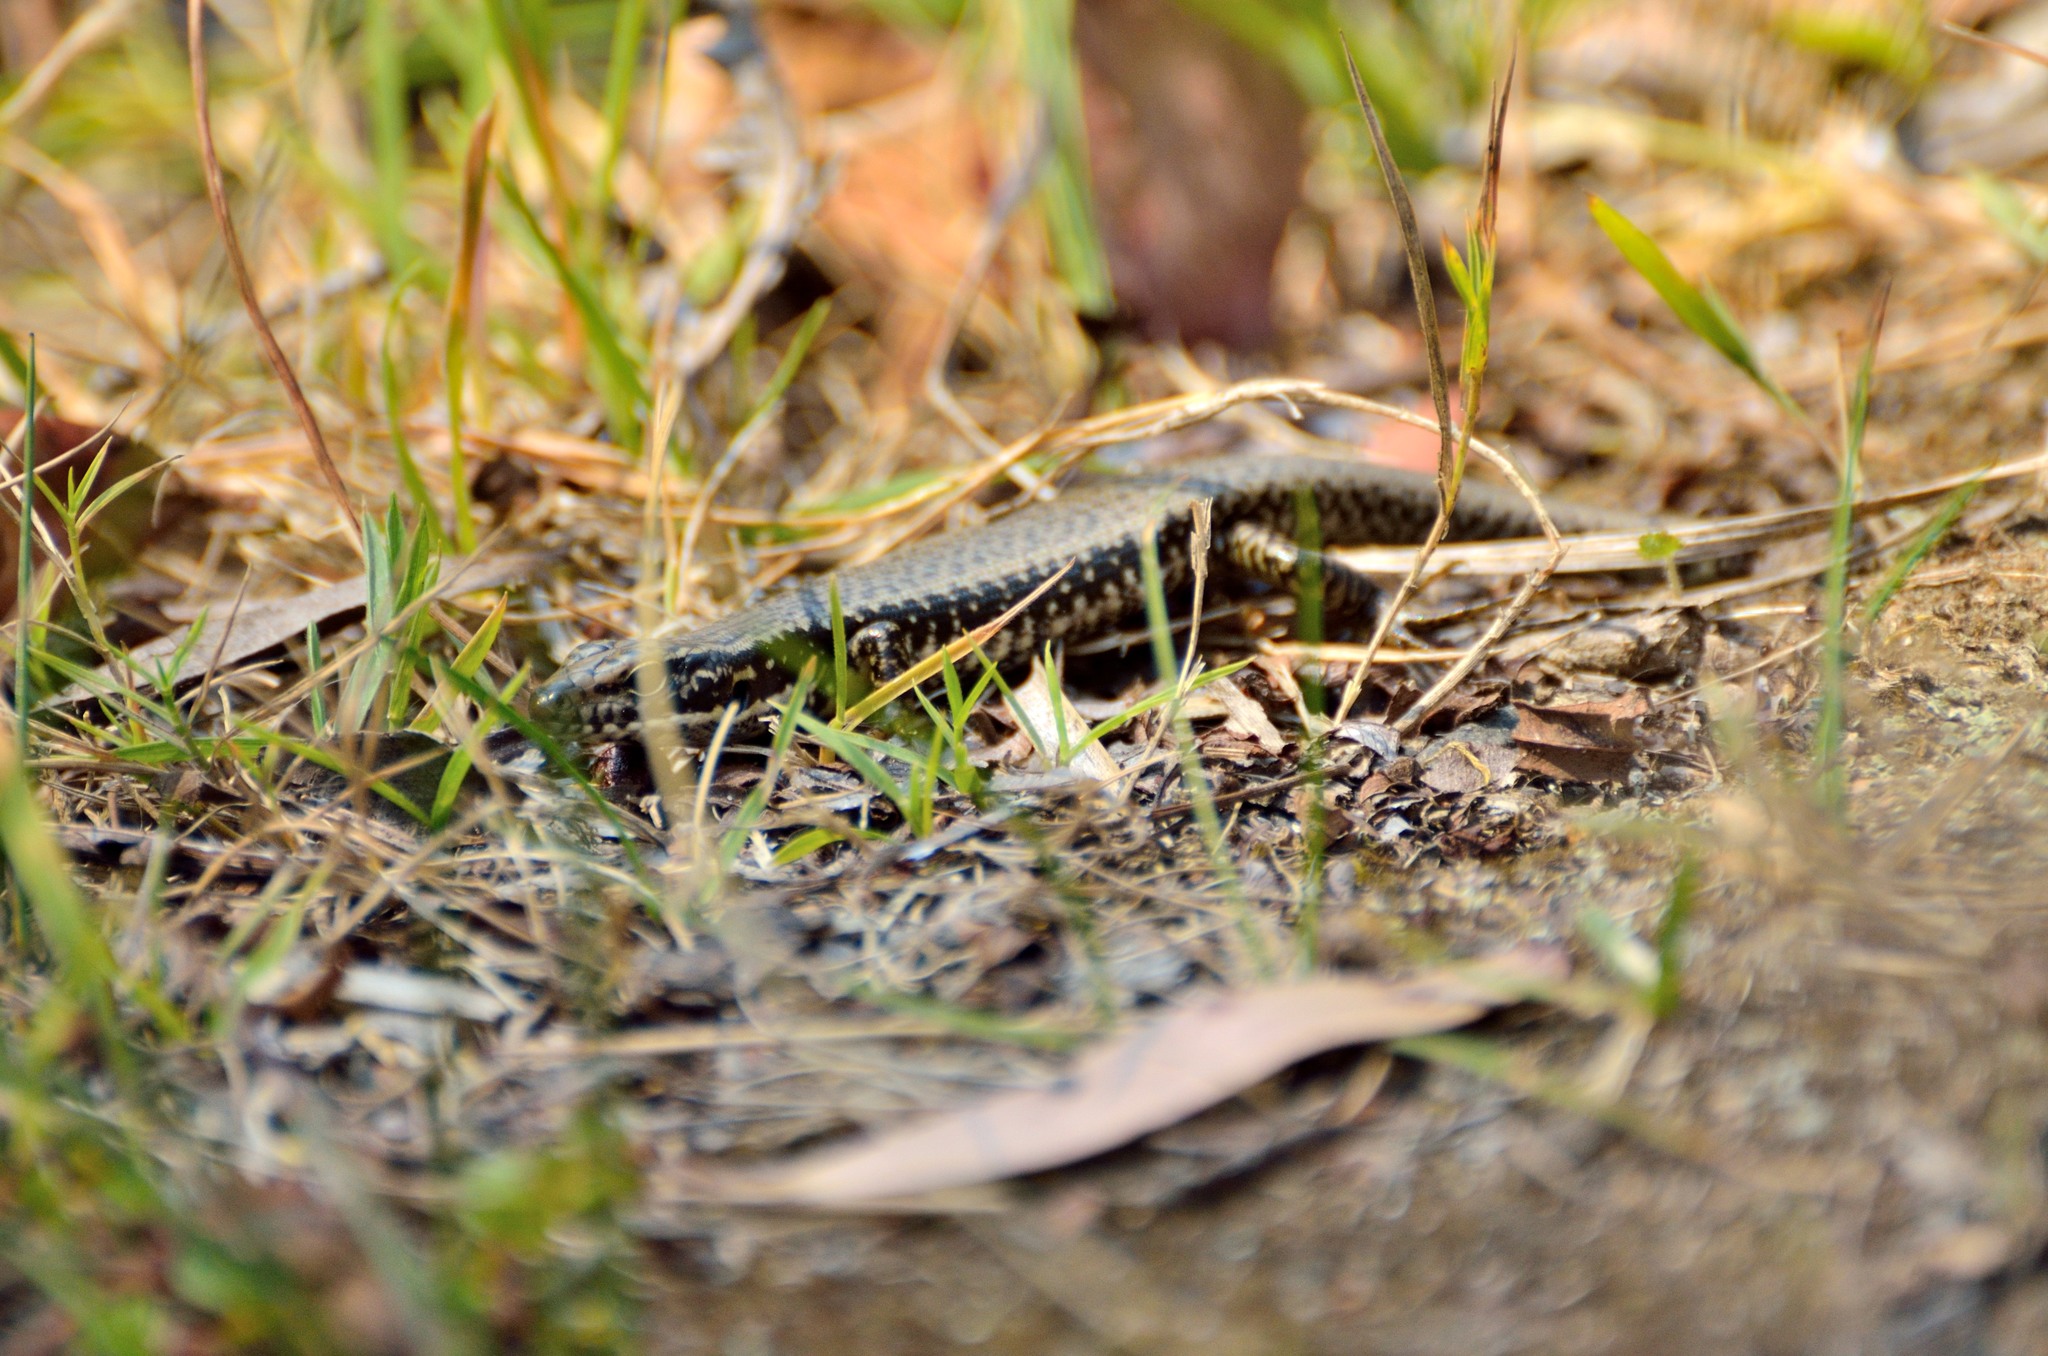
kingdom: Animalia
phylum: Chordata
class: Squamata
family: Scincidae
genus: Eulamprus
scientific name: Eulamprus heatwolei
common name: Warm-temperate water-skink
